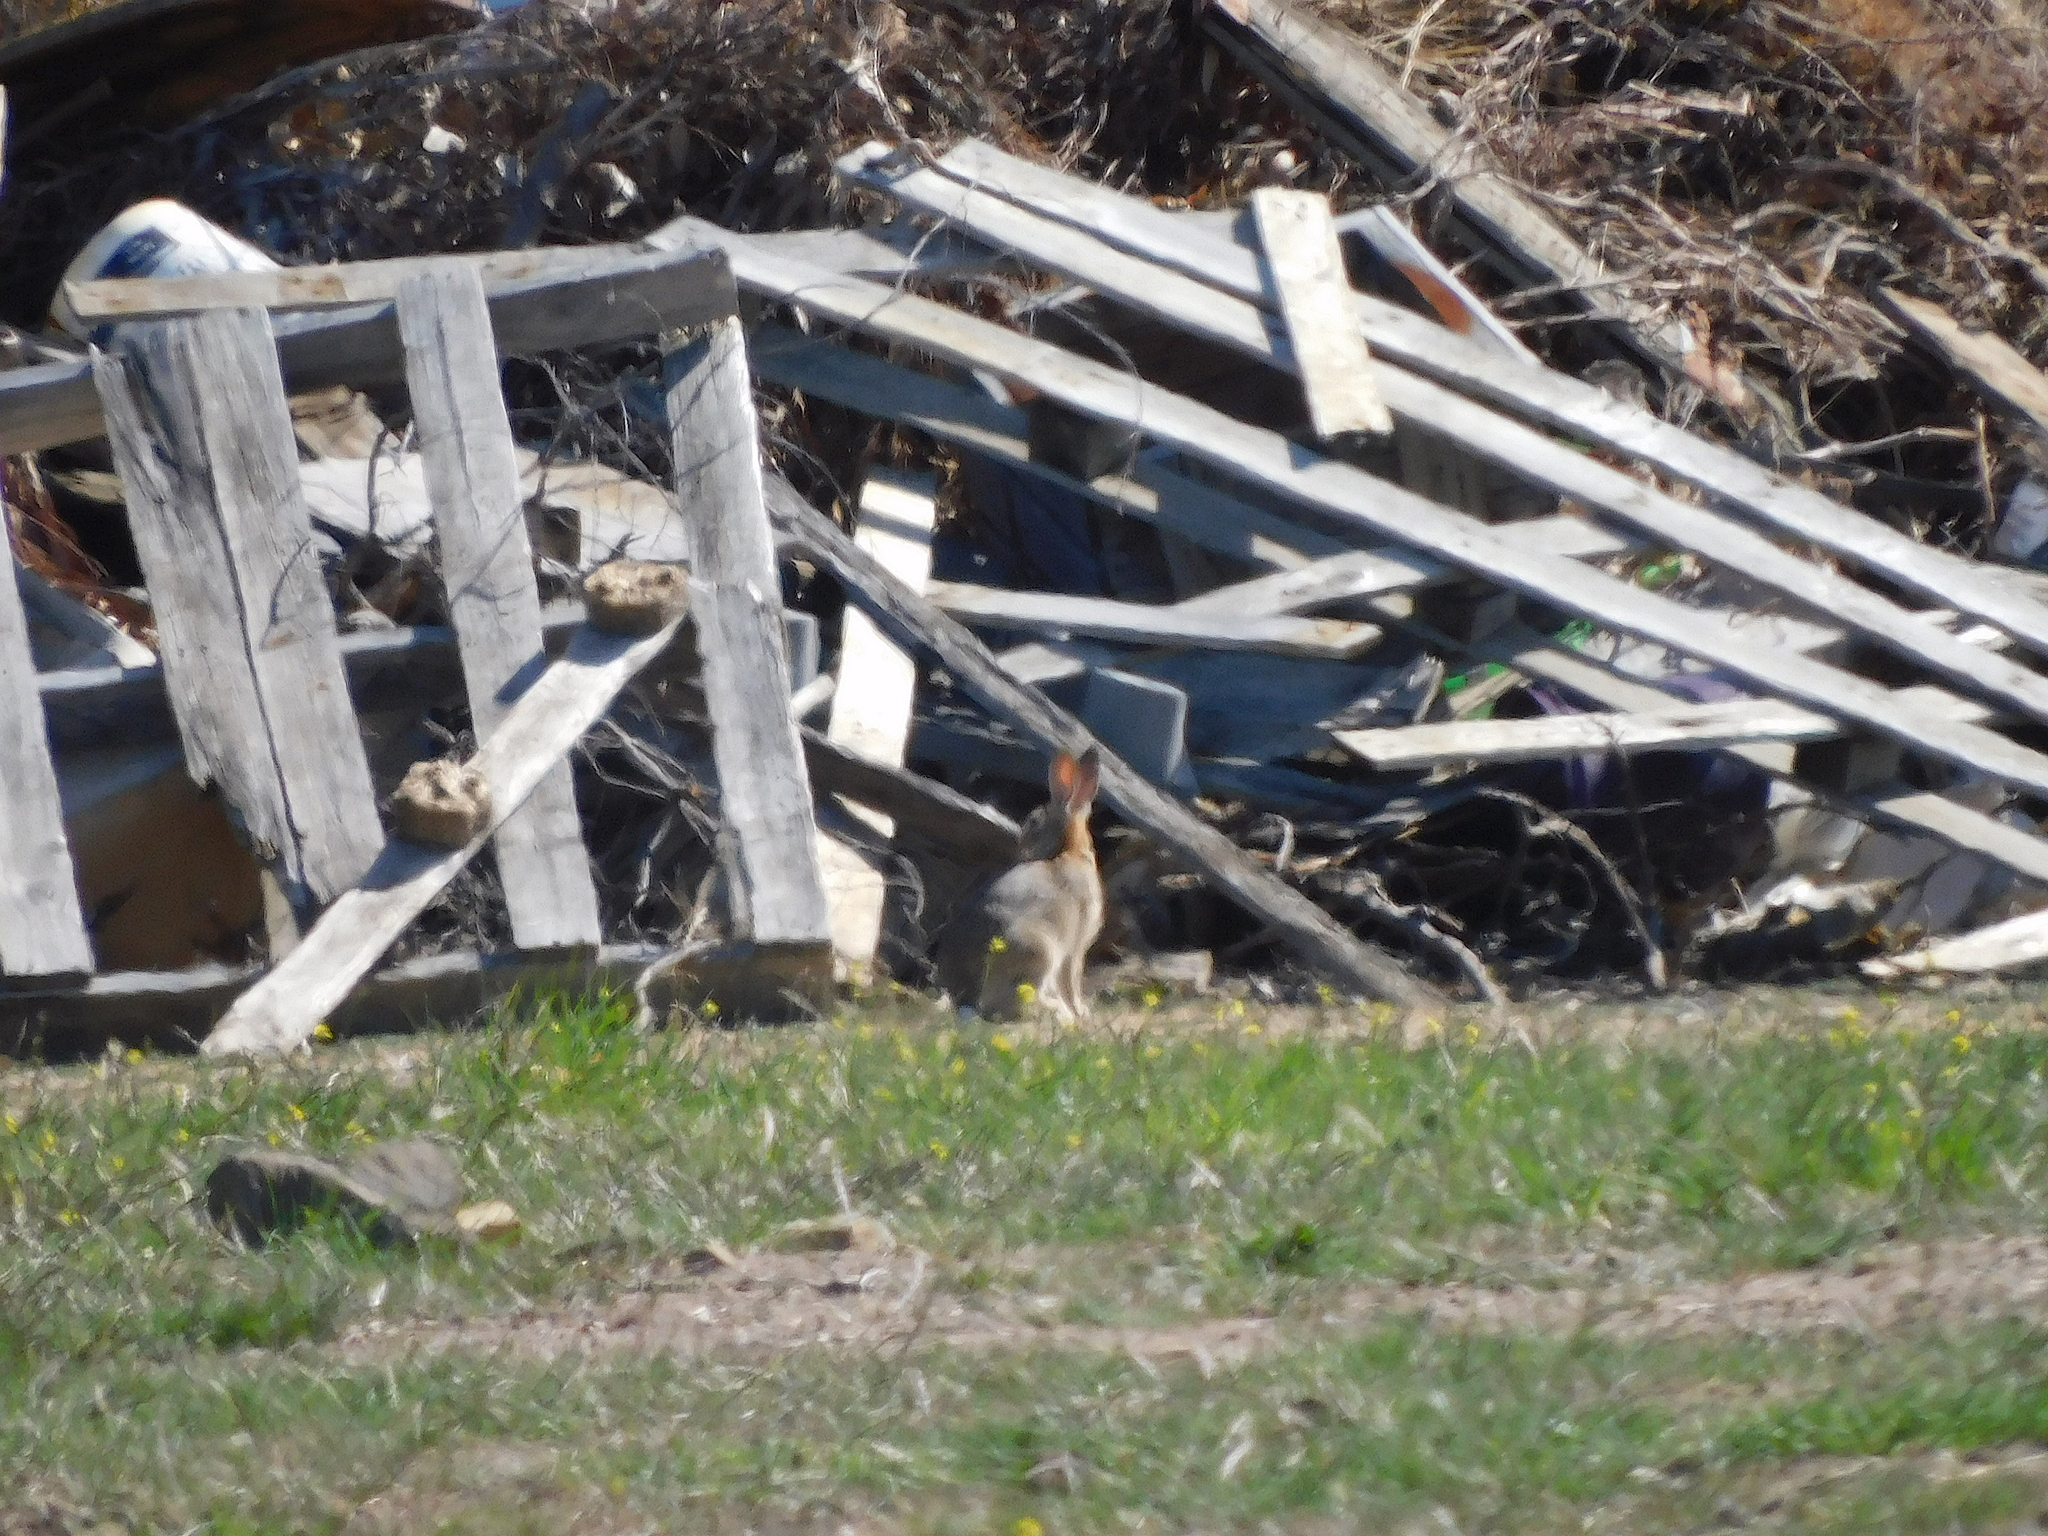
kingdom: Animalia
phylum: Chordata
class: Mammalia
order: Lagomorpha
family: Leporidae
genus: Oryctolagus
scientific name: Oryctolagus cuniculus
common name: European rabbit
